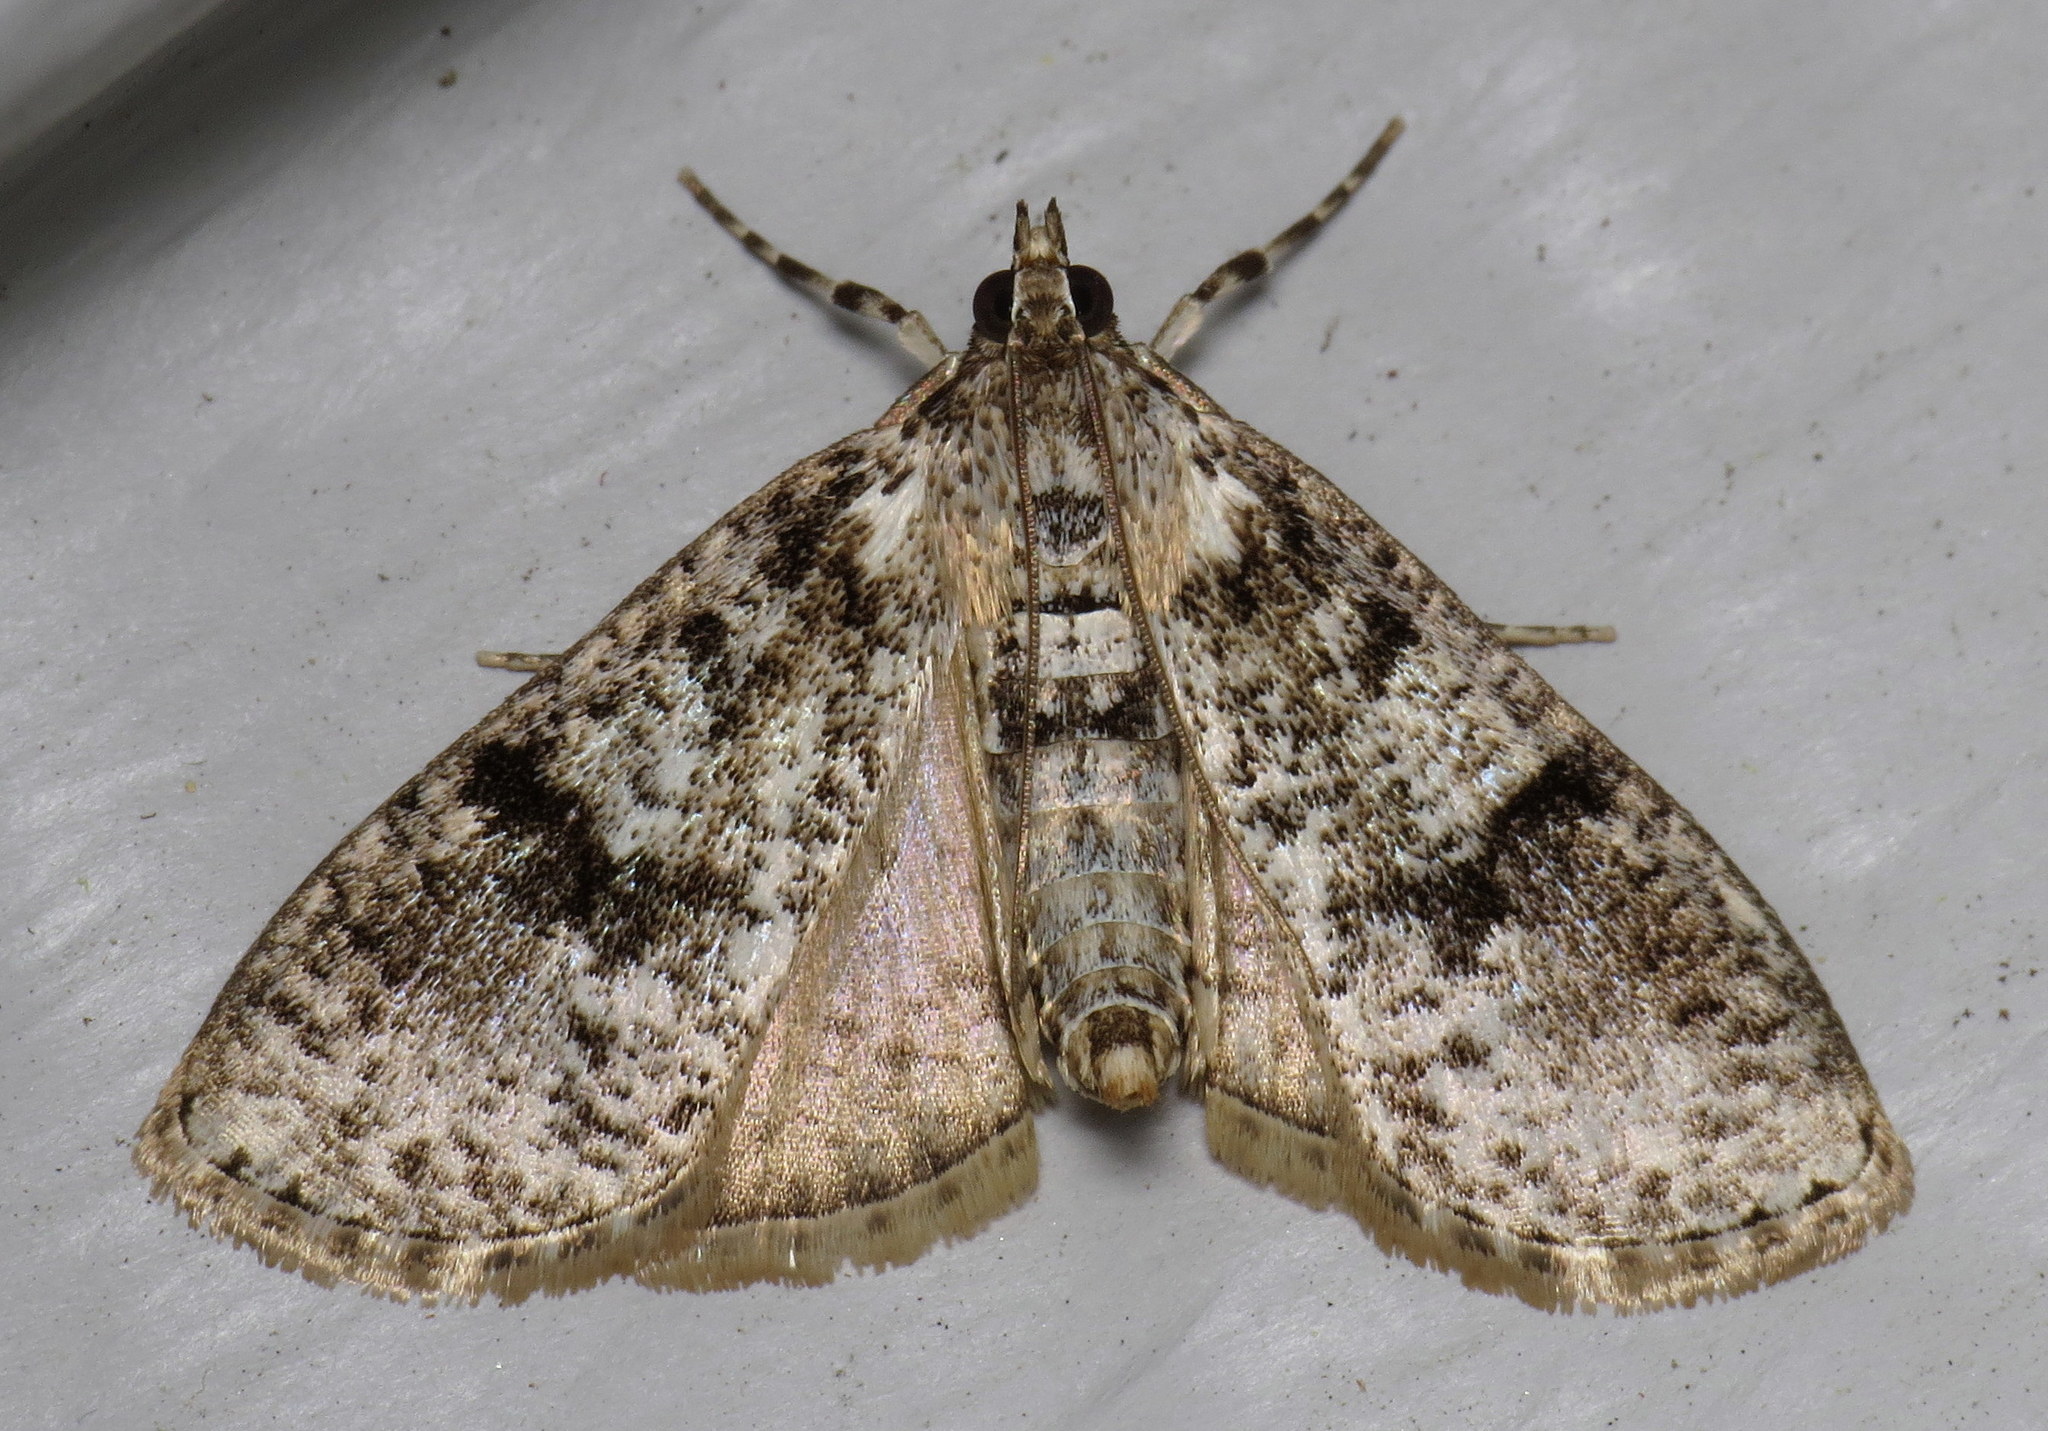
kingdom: Animalia
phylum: Arthropoda
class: Insecta
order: Lepidoptera
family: Crambidae
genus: Palpita
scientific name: Palpita magniferalis
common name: Splendid palpita moth
